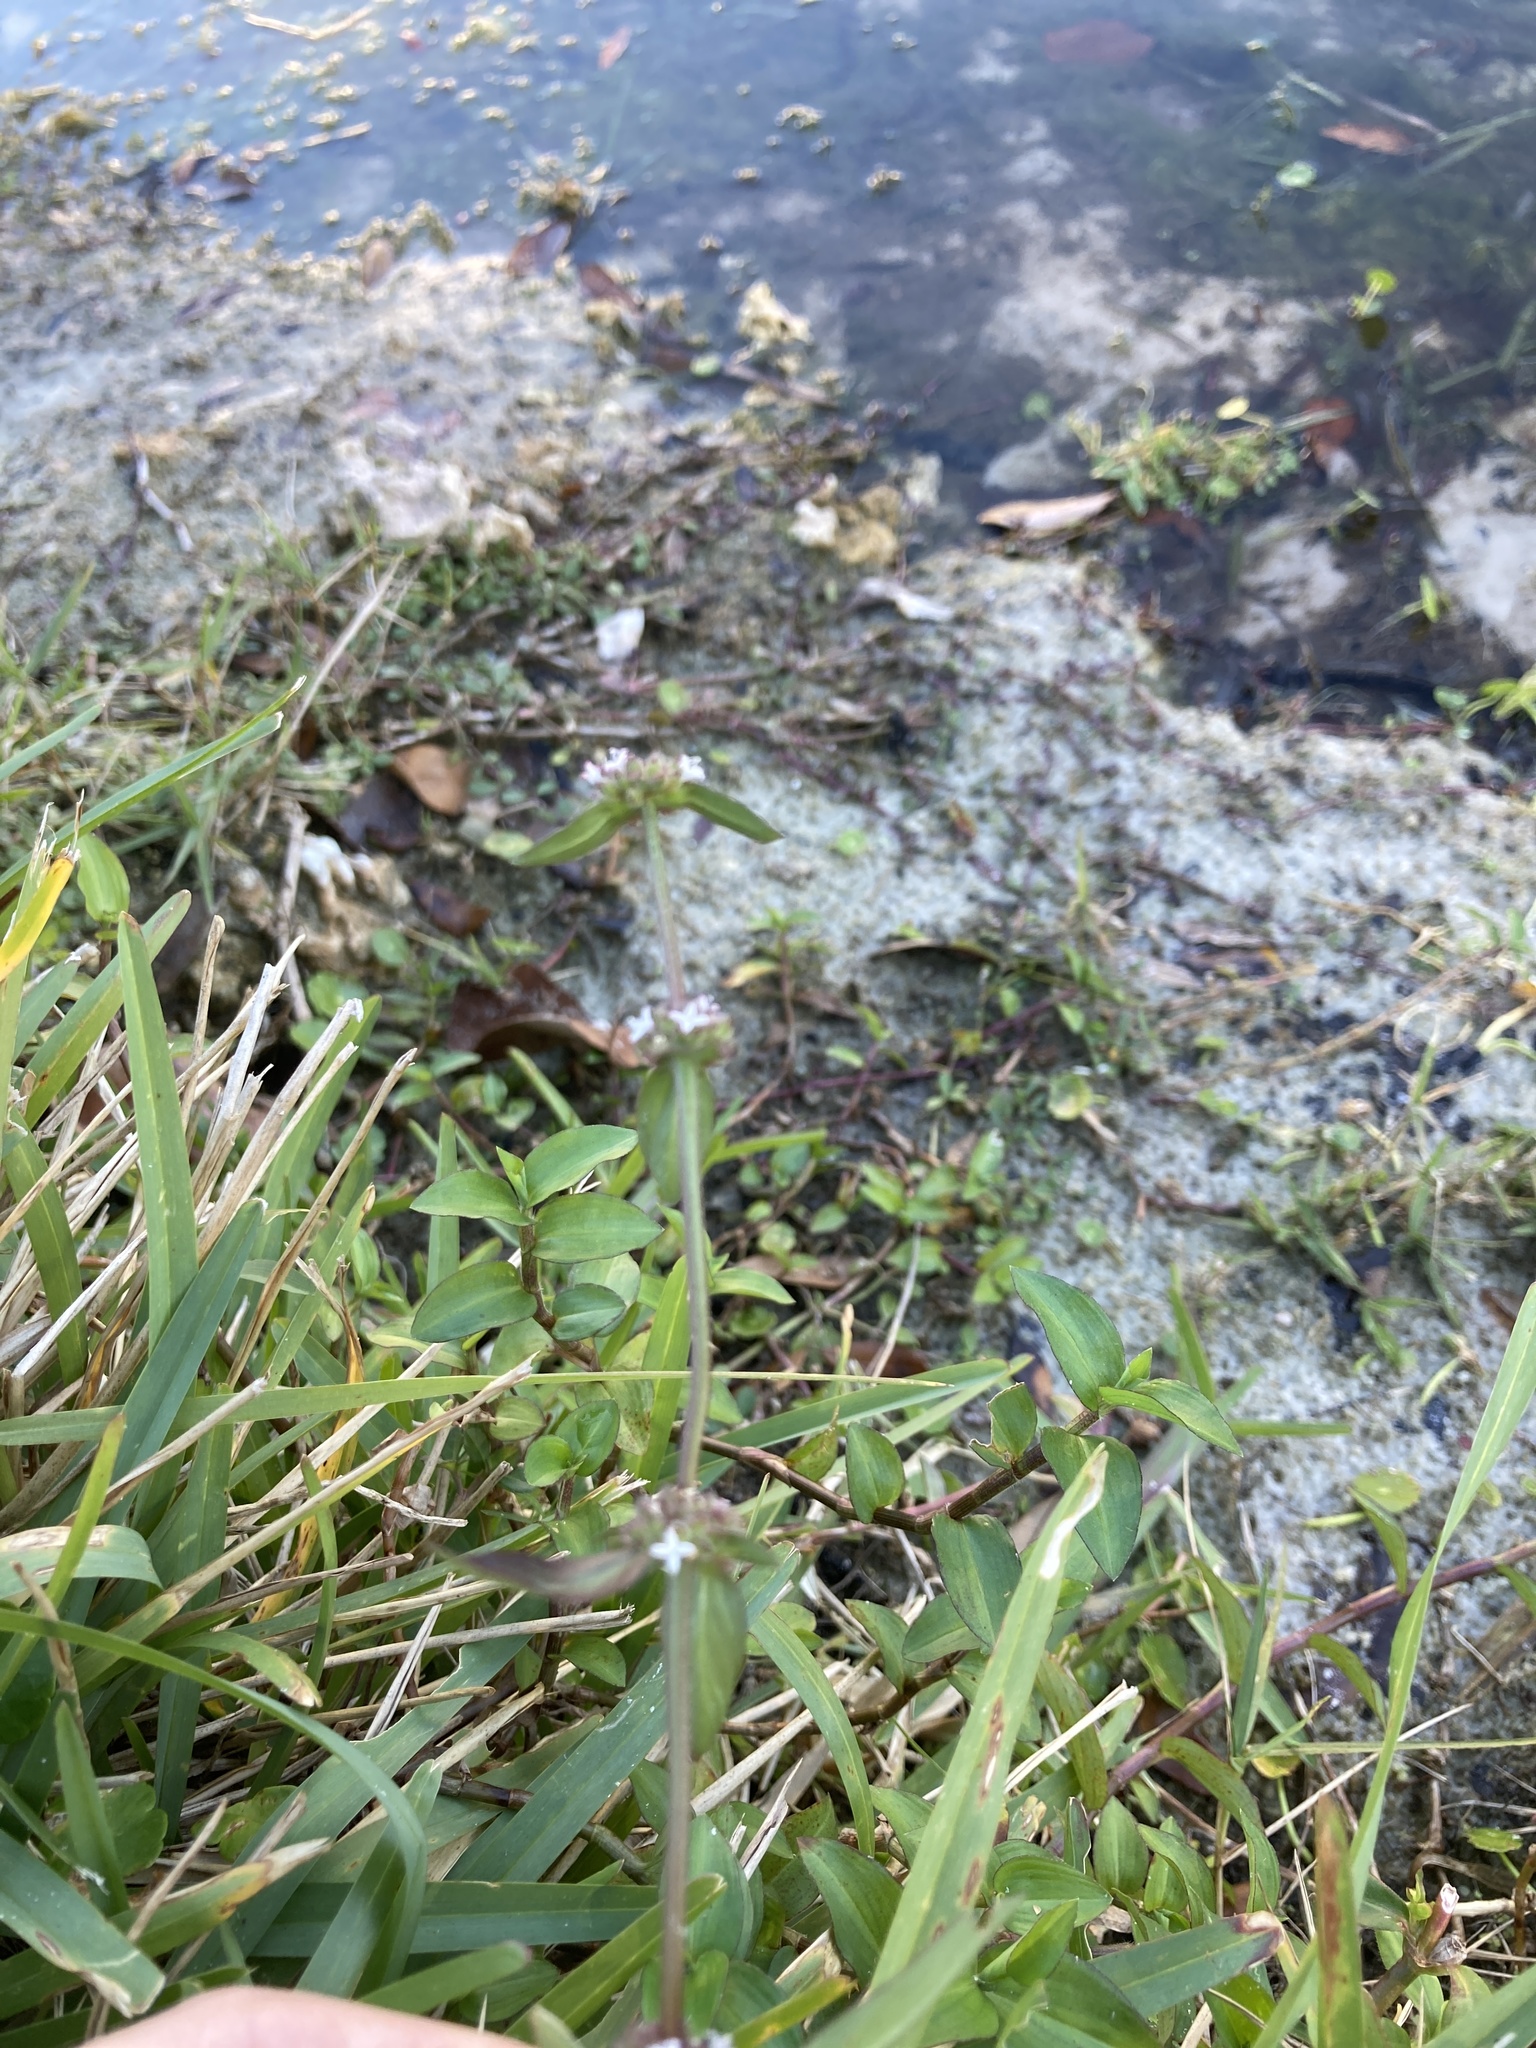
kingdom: Plantae
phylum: Tracheophyta
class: Magnoliopsida
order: Gentianales
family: Rubiaceae
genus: Spermacoce
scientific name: Spermacoce remota
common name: Woodland false buttonweed
